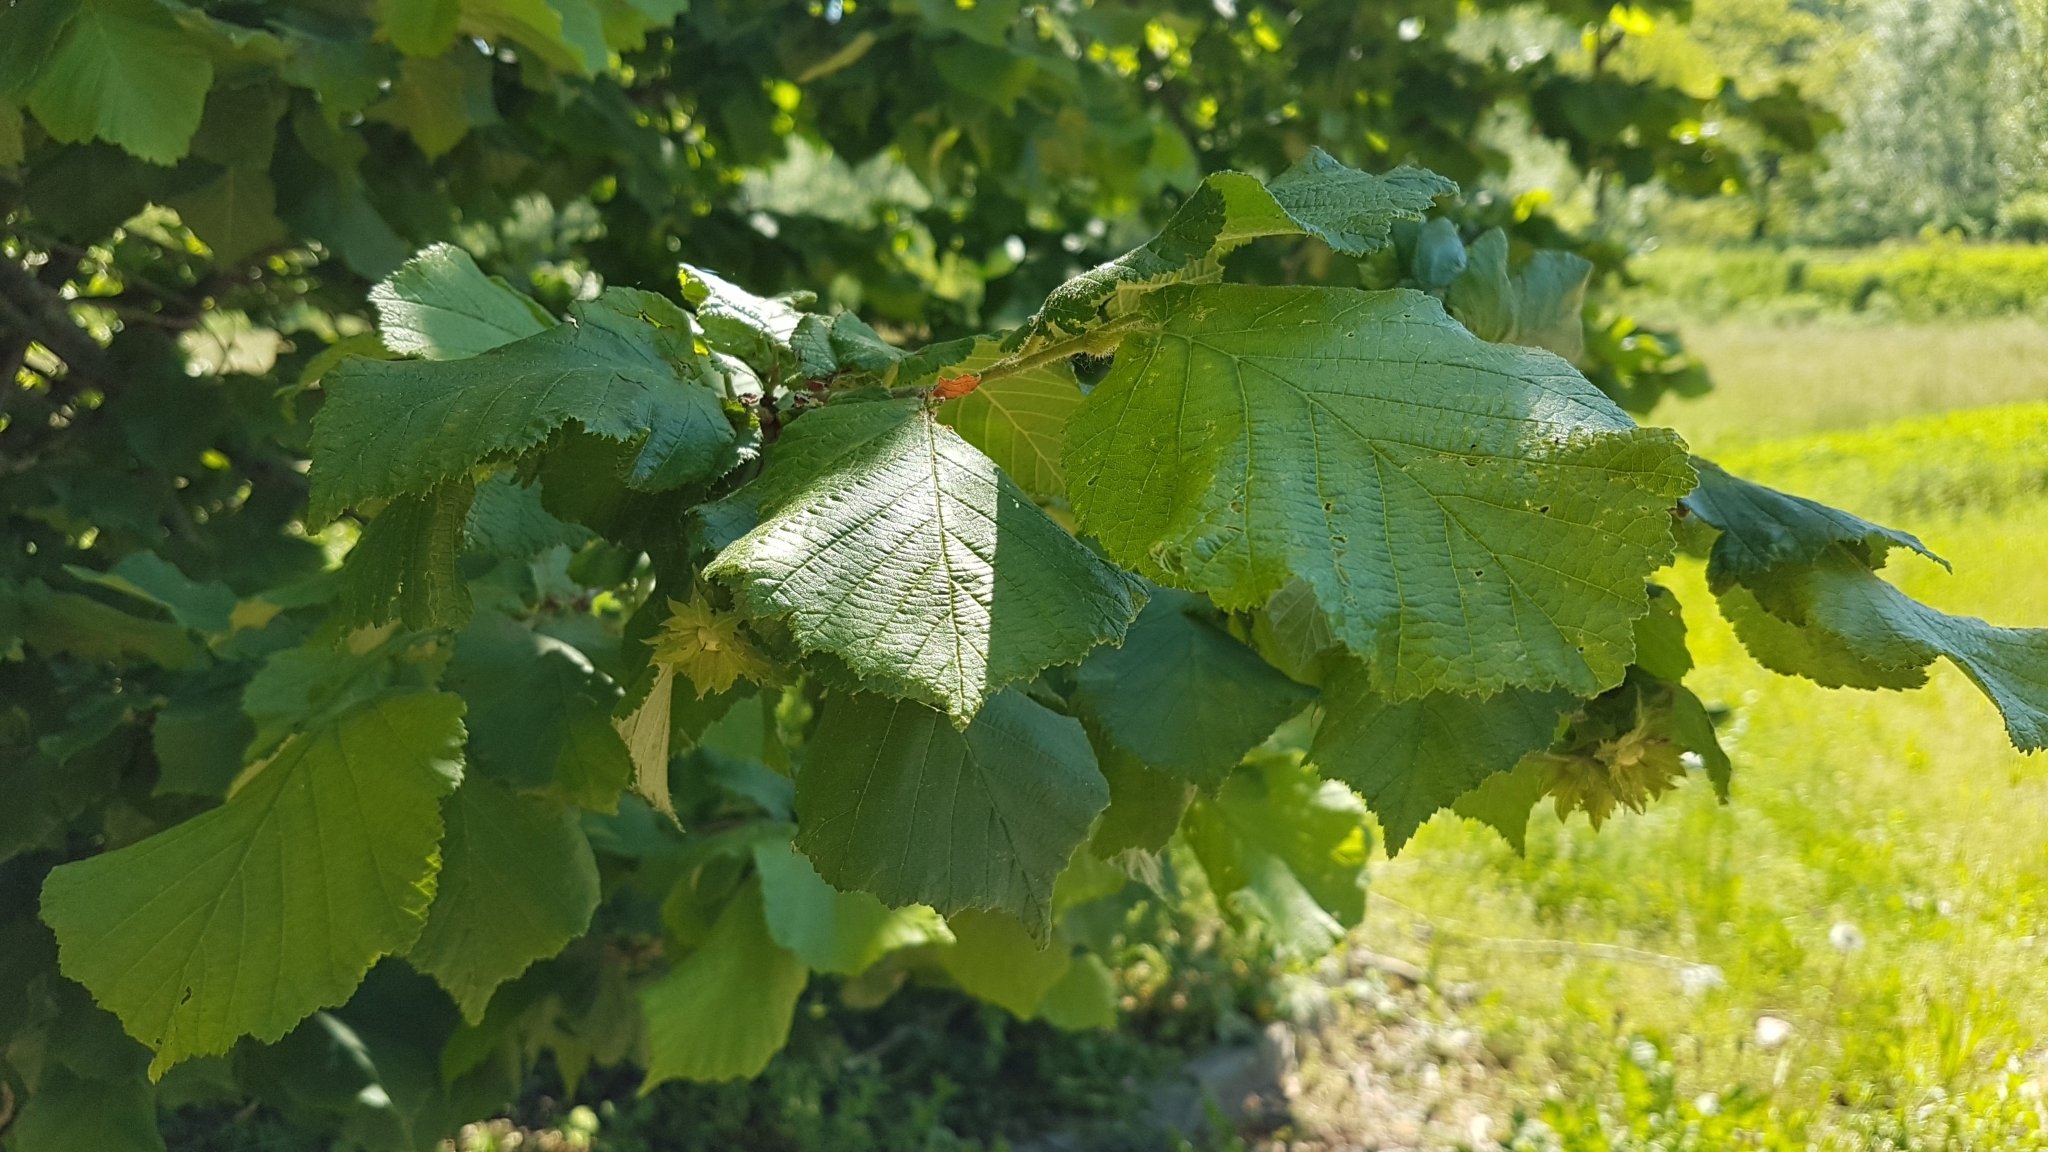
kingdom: Plantae
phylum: Tracheophyta
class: Magnoliopsida
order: Fagales
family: Betulaceae
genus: Corylus
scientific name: Corylus avellana
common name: European hazel
